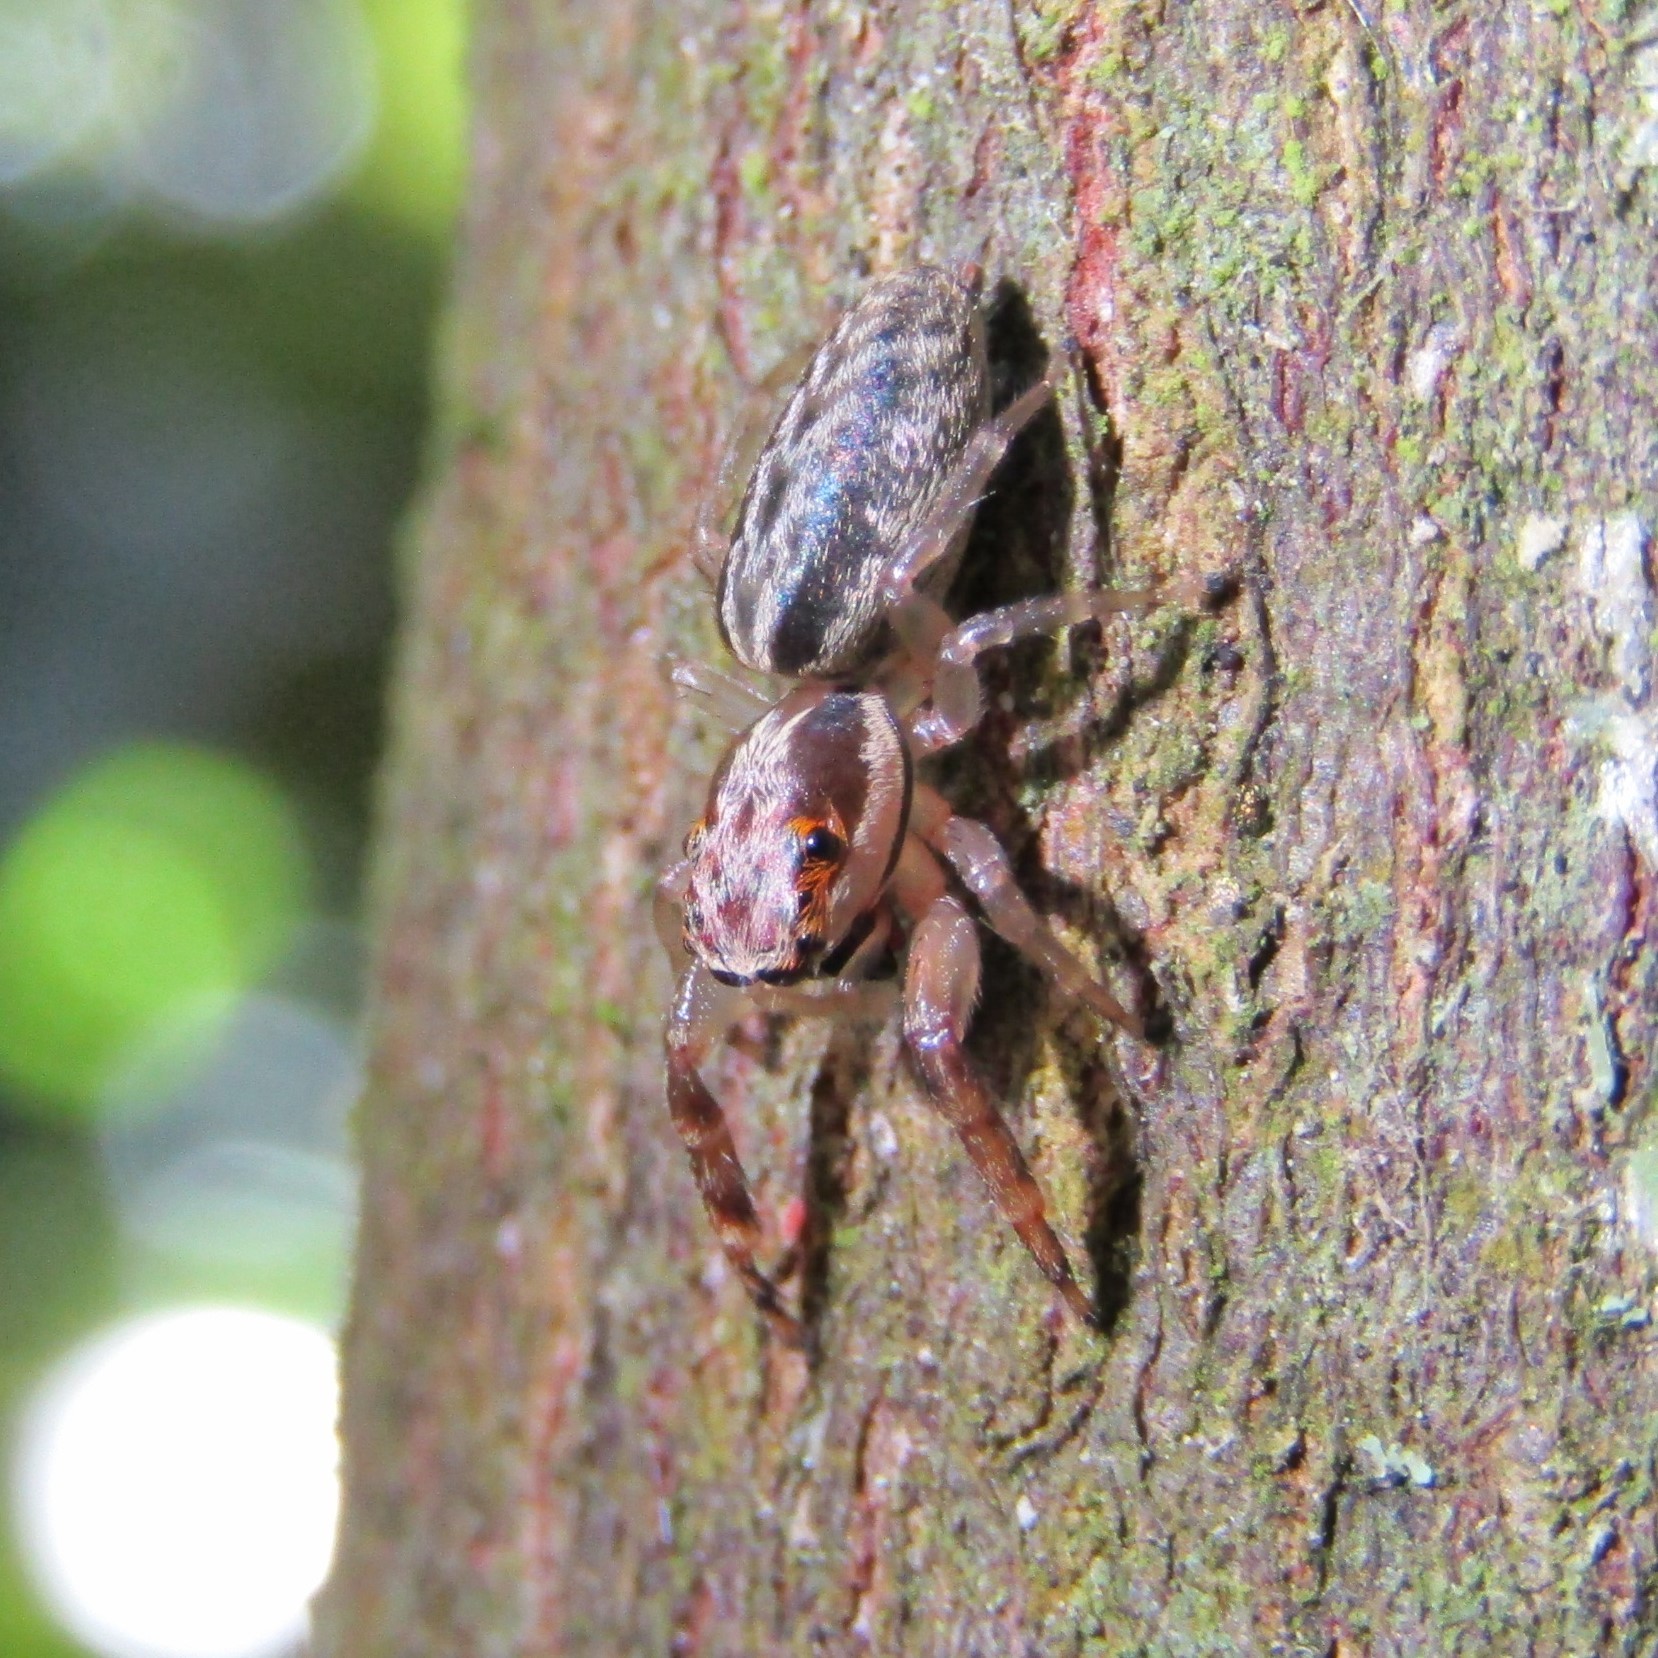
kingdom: Animalia
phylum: Arthropoda
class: Arachnida
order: Araneae
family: Salticidae
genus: Trite
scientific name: Trite mustilina
